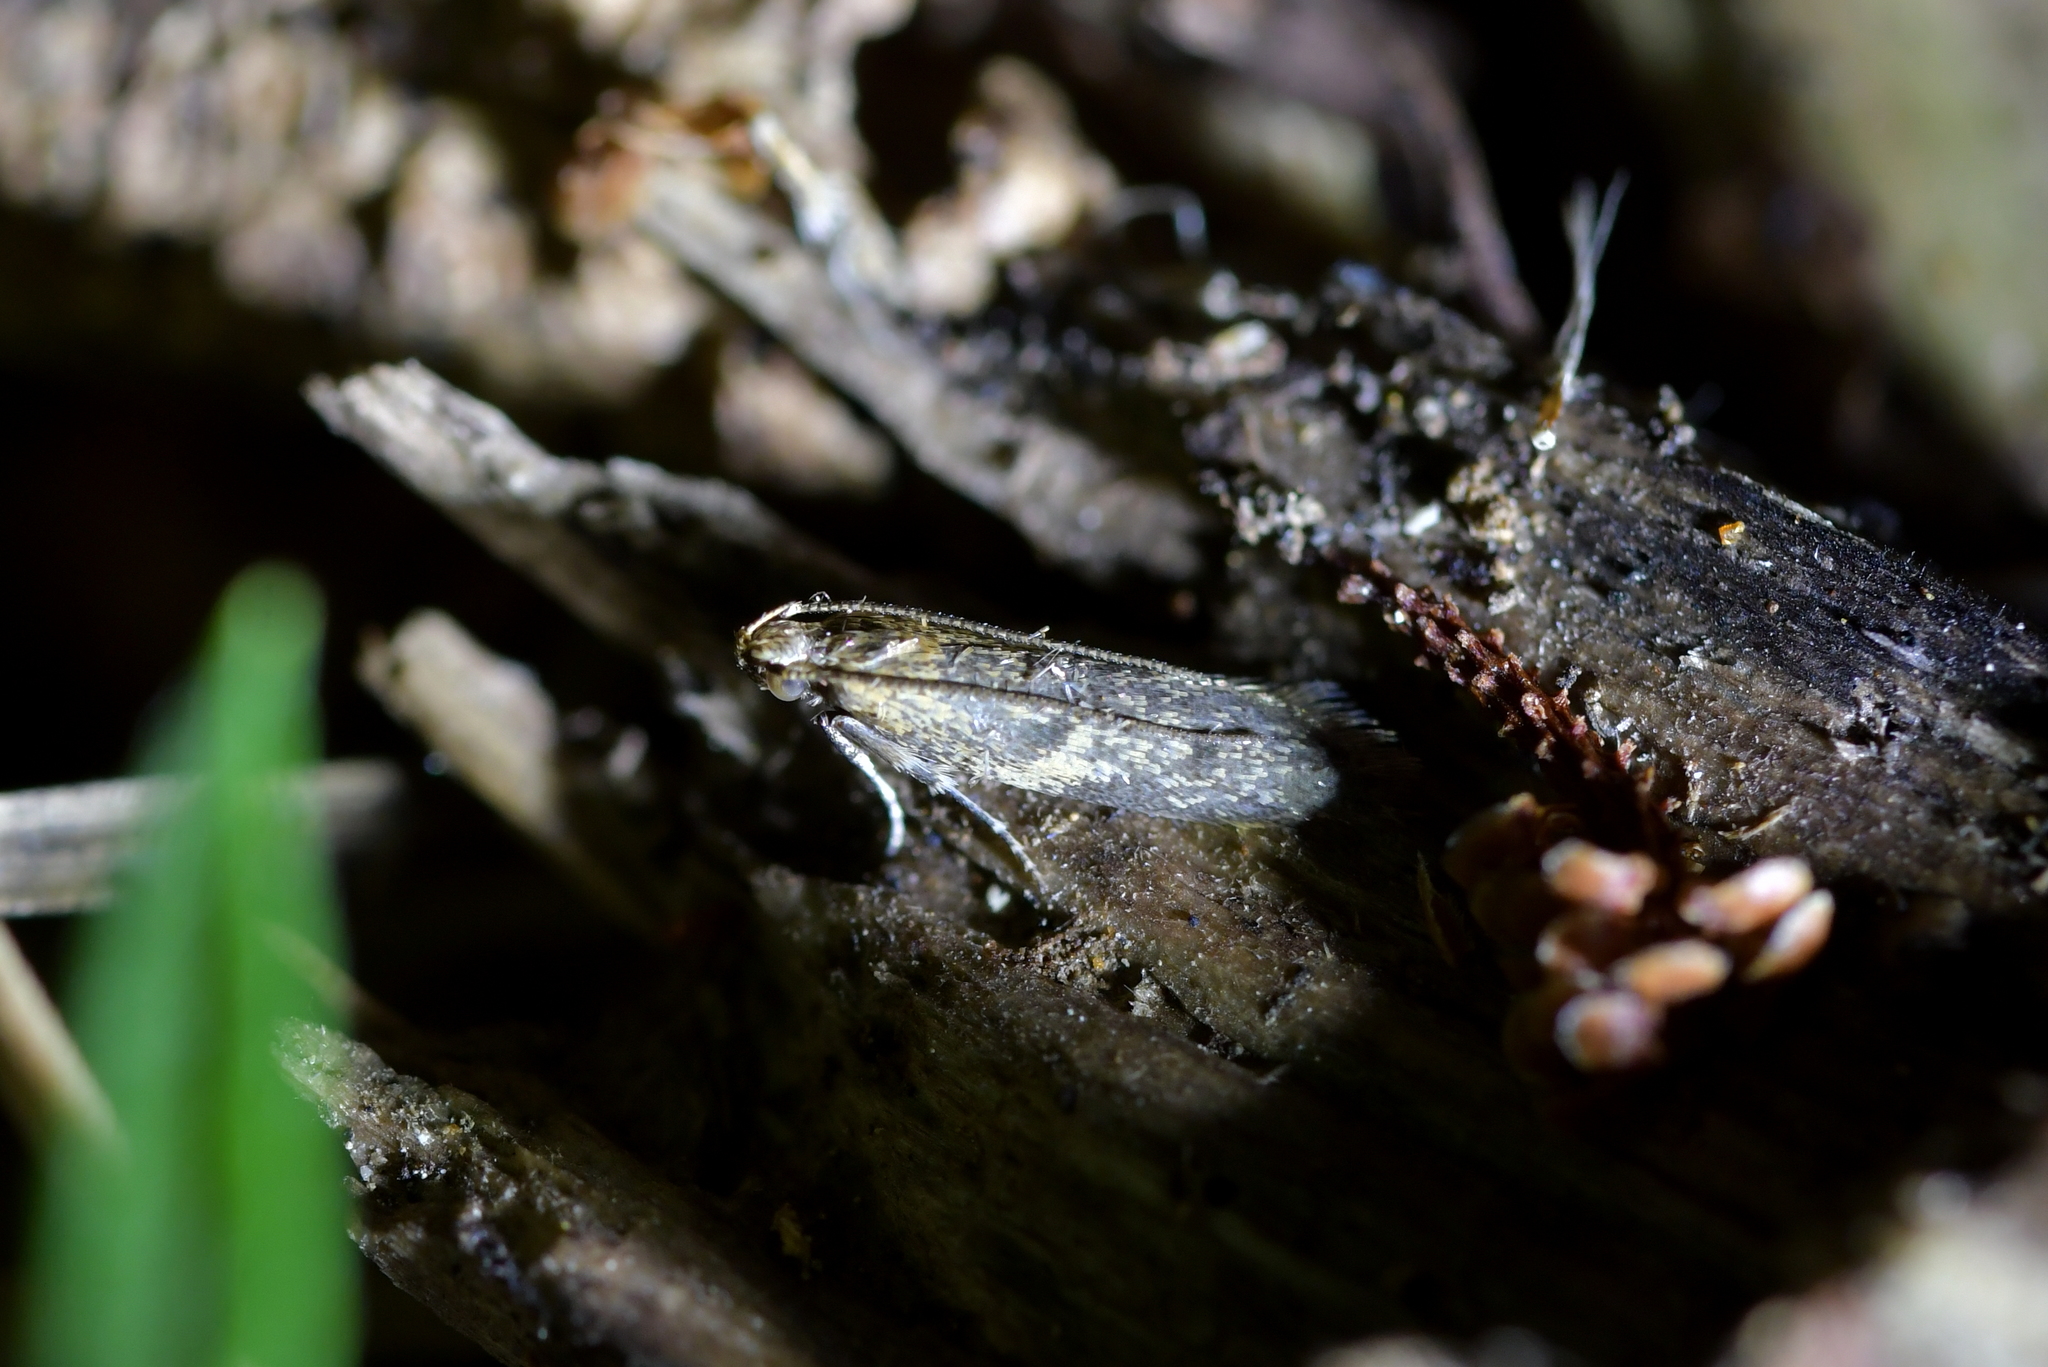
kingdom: Animalia
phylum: Arthropoda
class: Insecta
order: Lepidoptera
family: Oecophoridae
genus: Gymnobathra
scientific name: Gymnobathra tholodella
